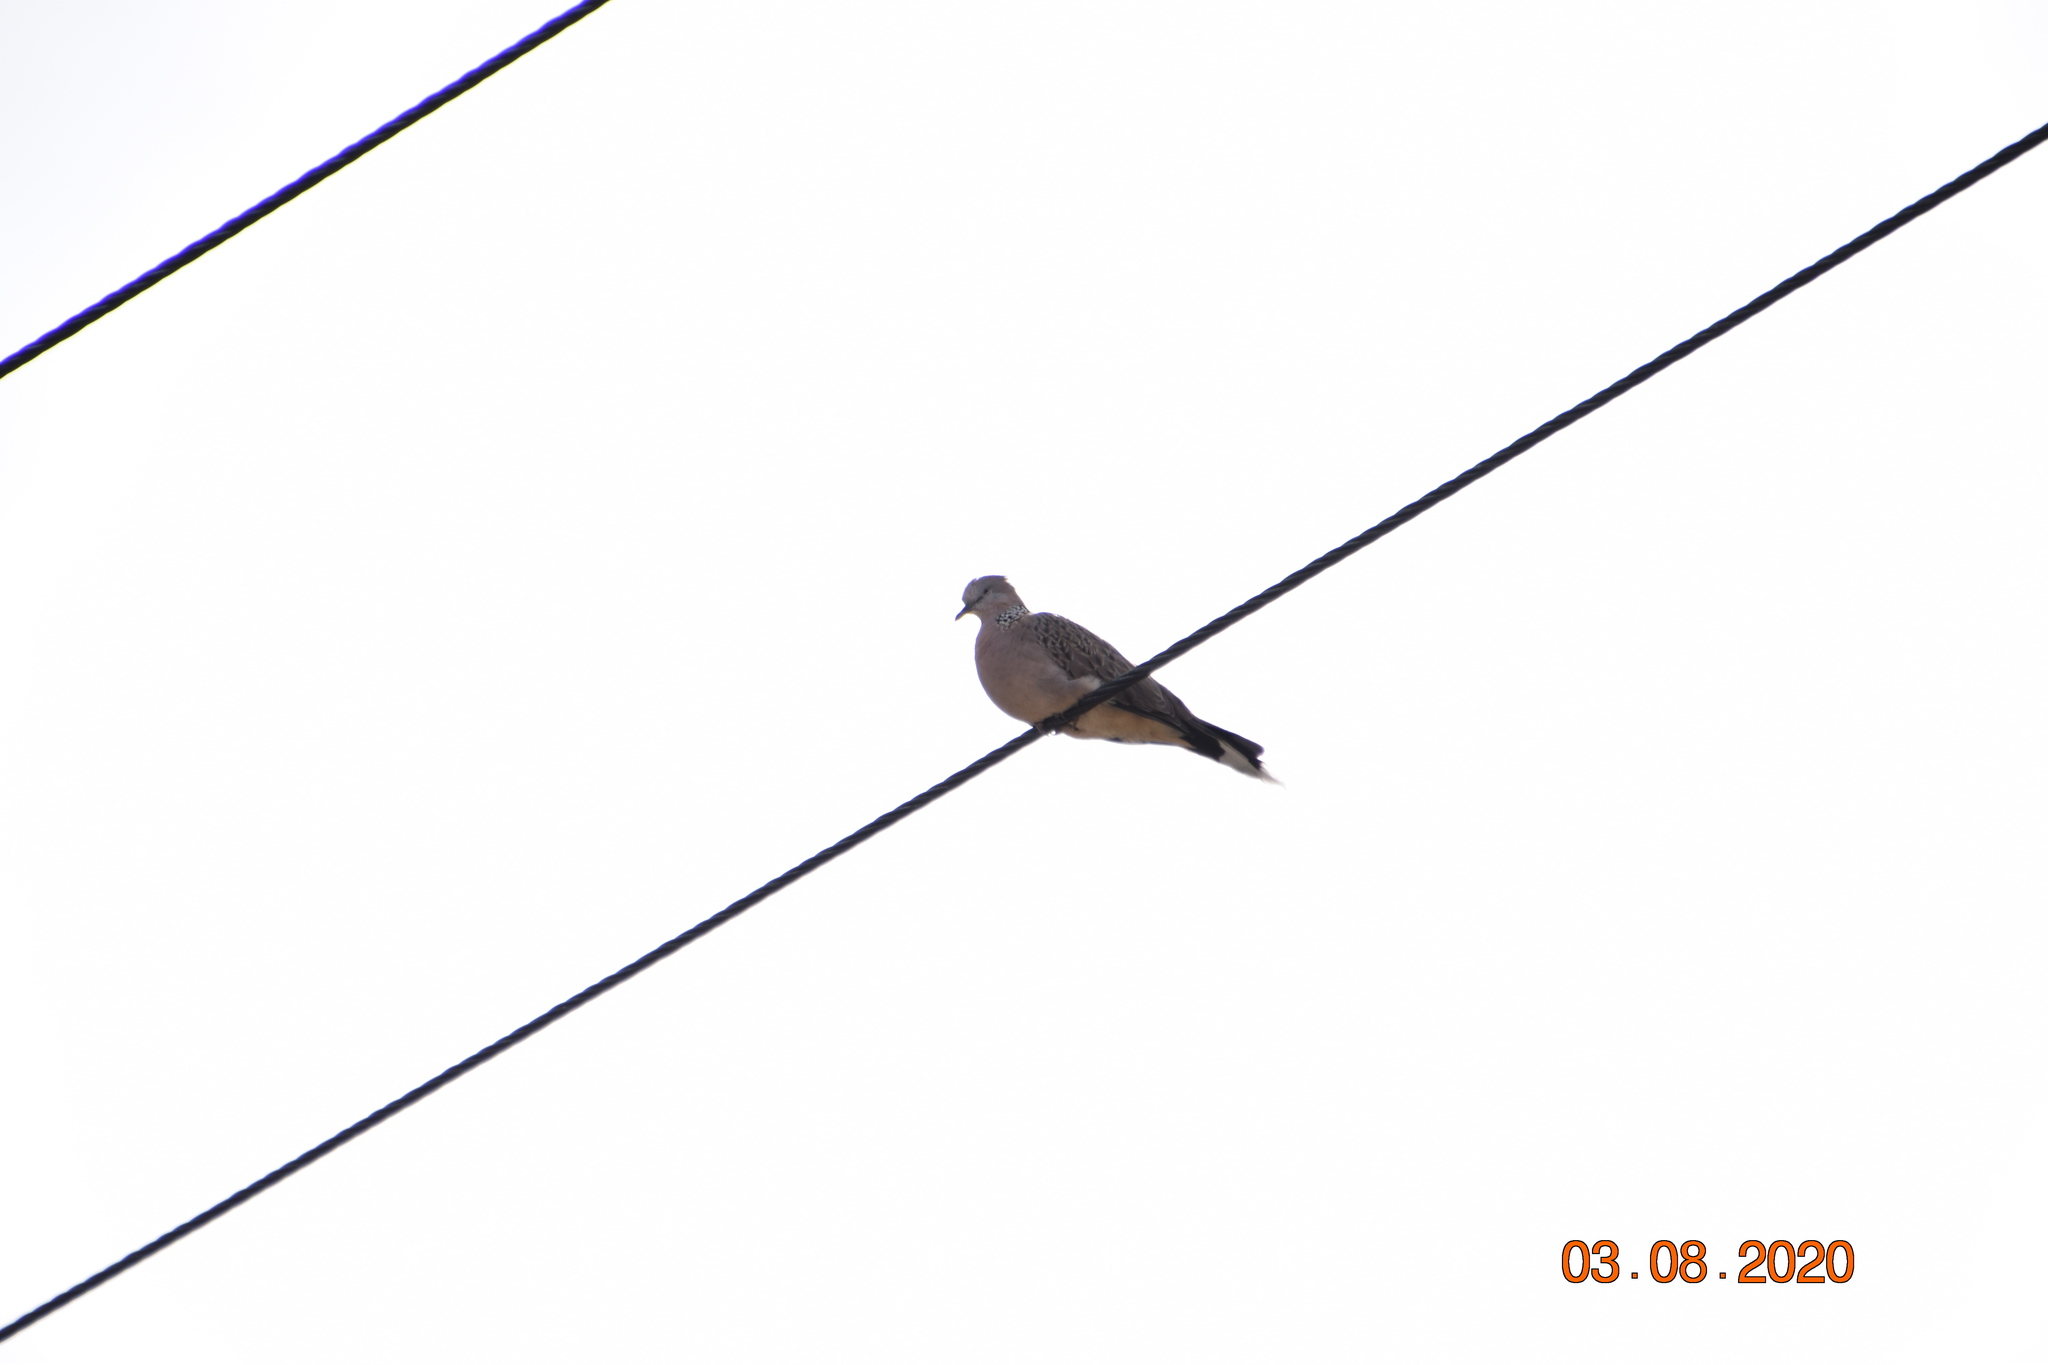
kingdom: Animalia
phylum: Chordata
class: Aves
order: Columbiformes
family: Columbidae
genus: Spilopelia
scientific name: Spilopelia chinensis
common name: Spotted dove
